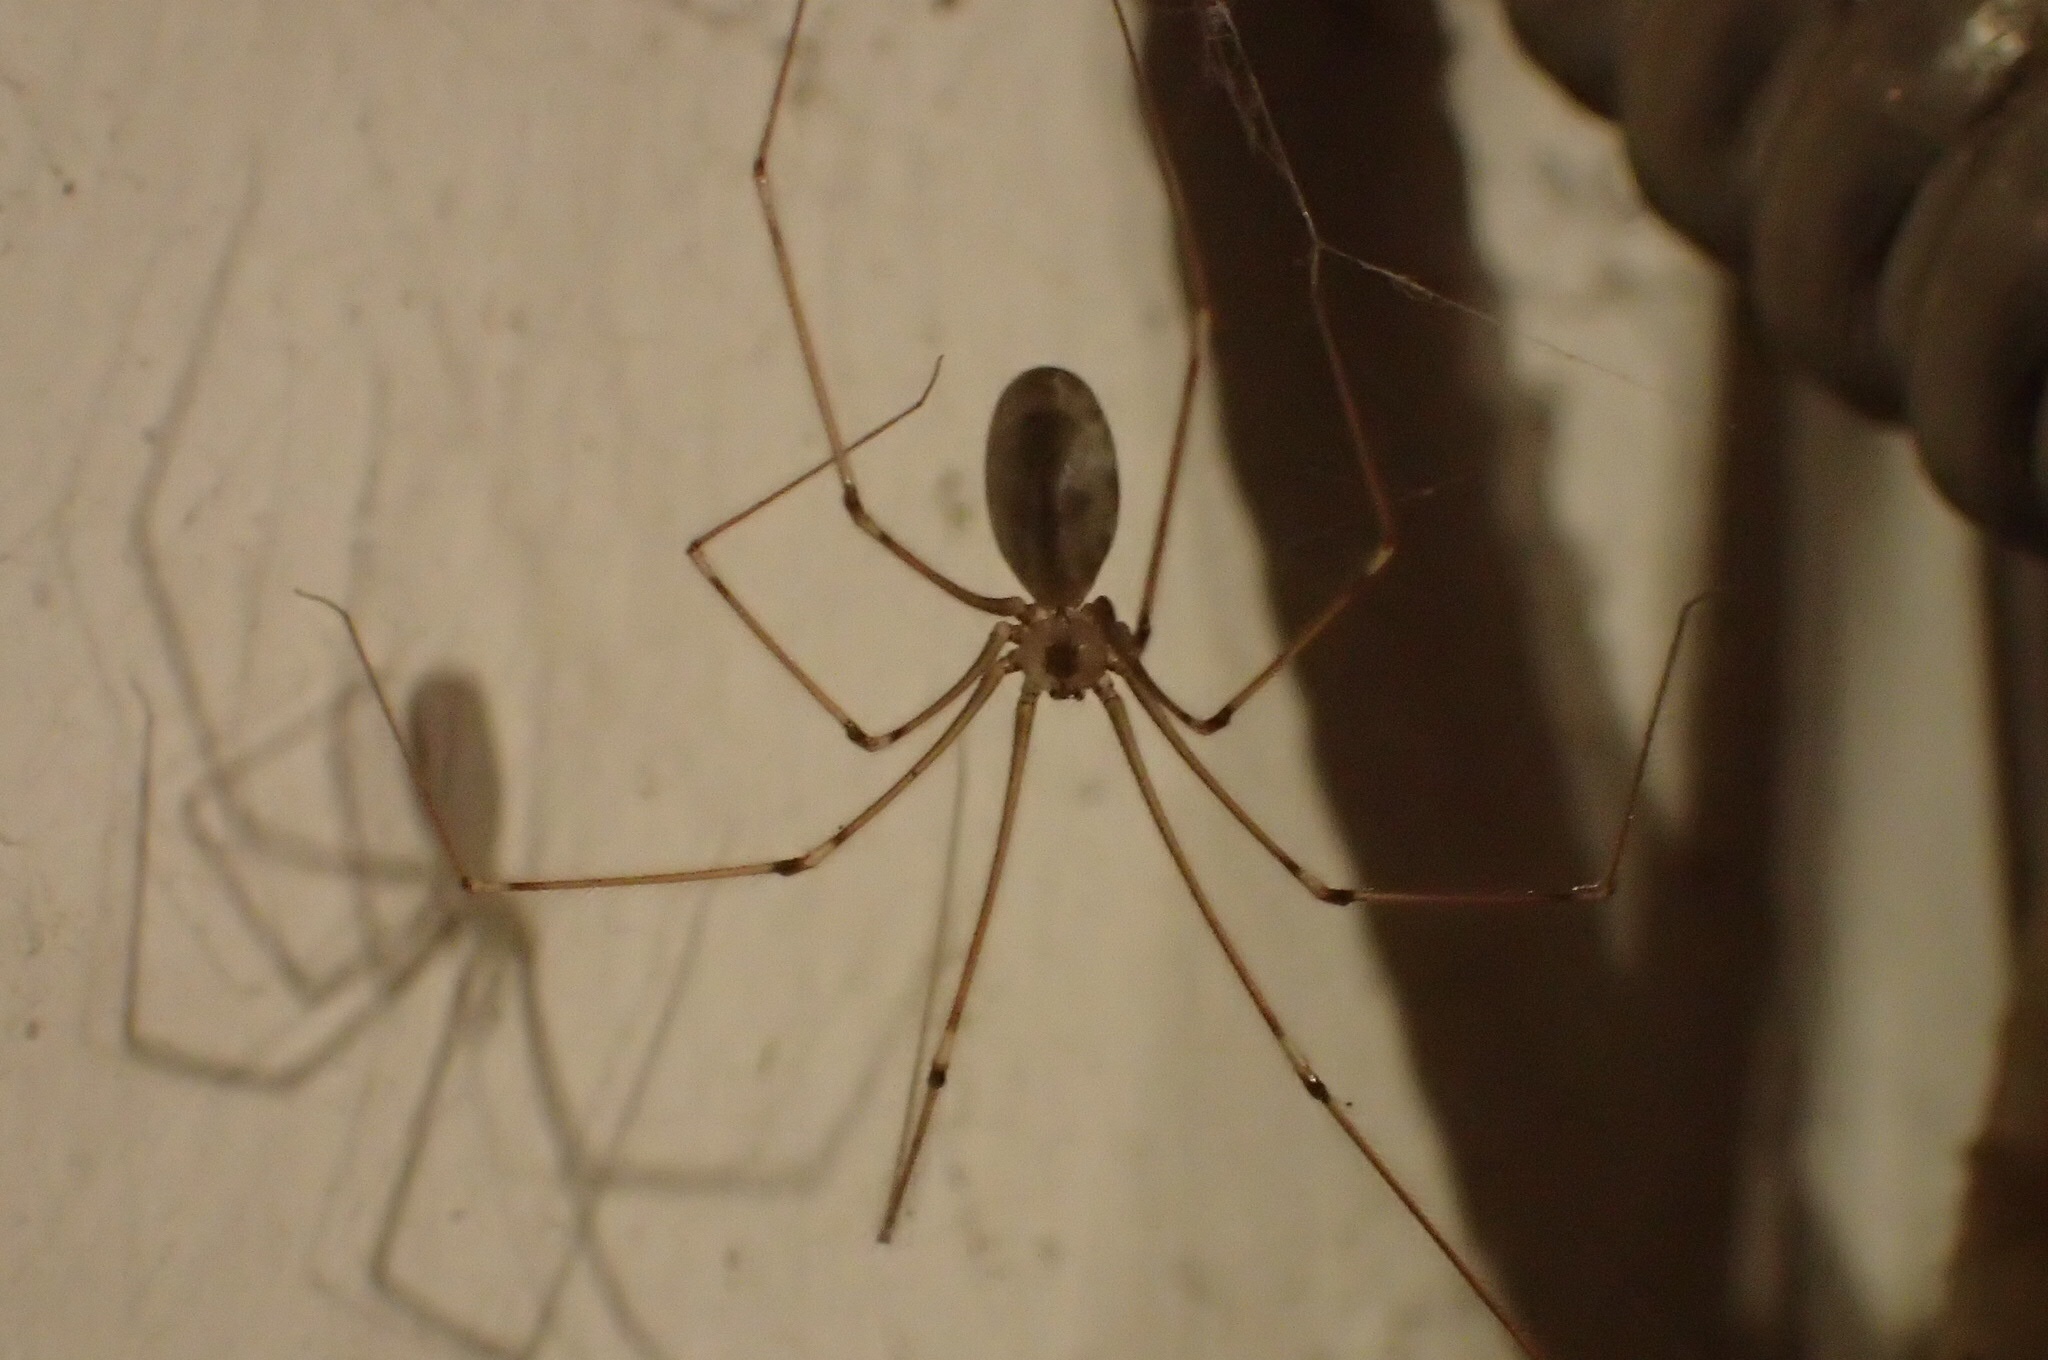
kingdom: Animalia
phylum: Arthropoda
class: Arachnida
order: Araneae
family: Pholcidae
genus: Pholcus
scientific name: Pholcus phalangioides
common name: Longbodied cellar spider
